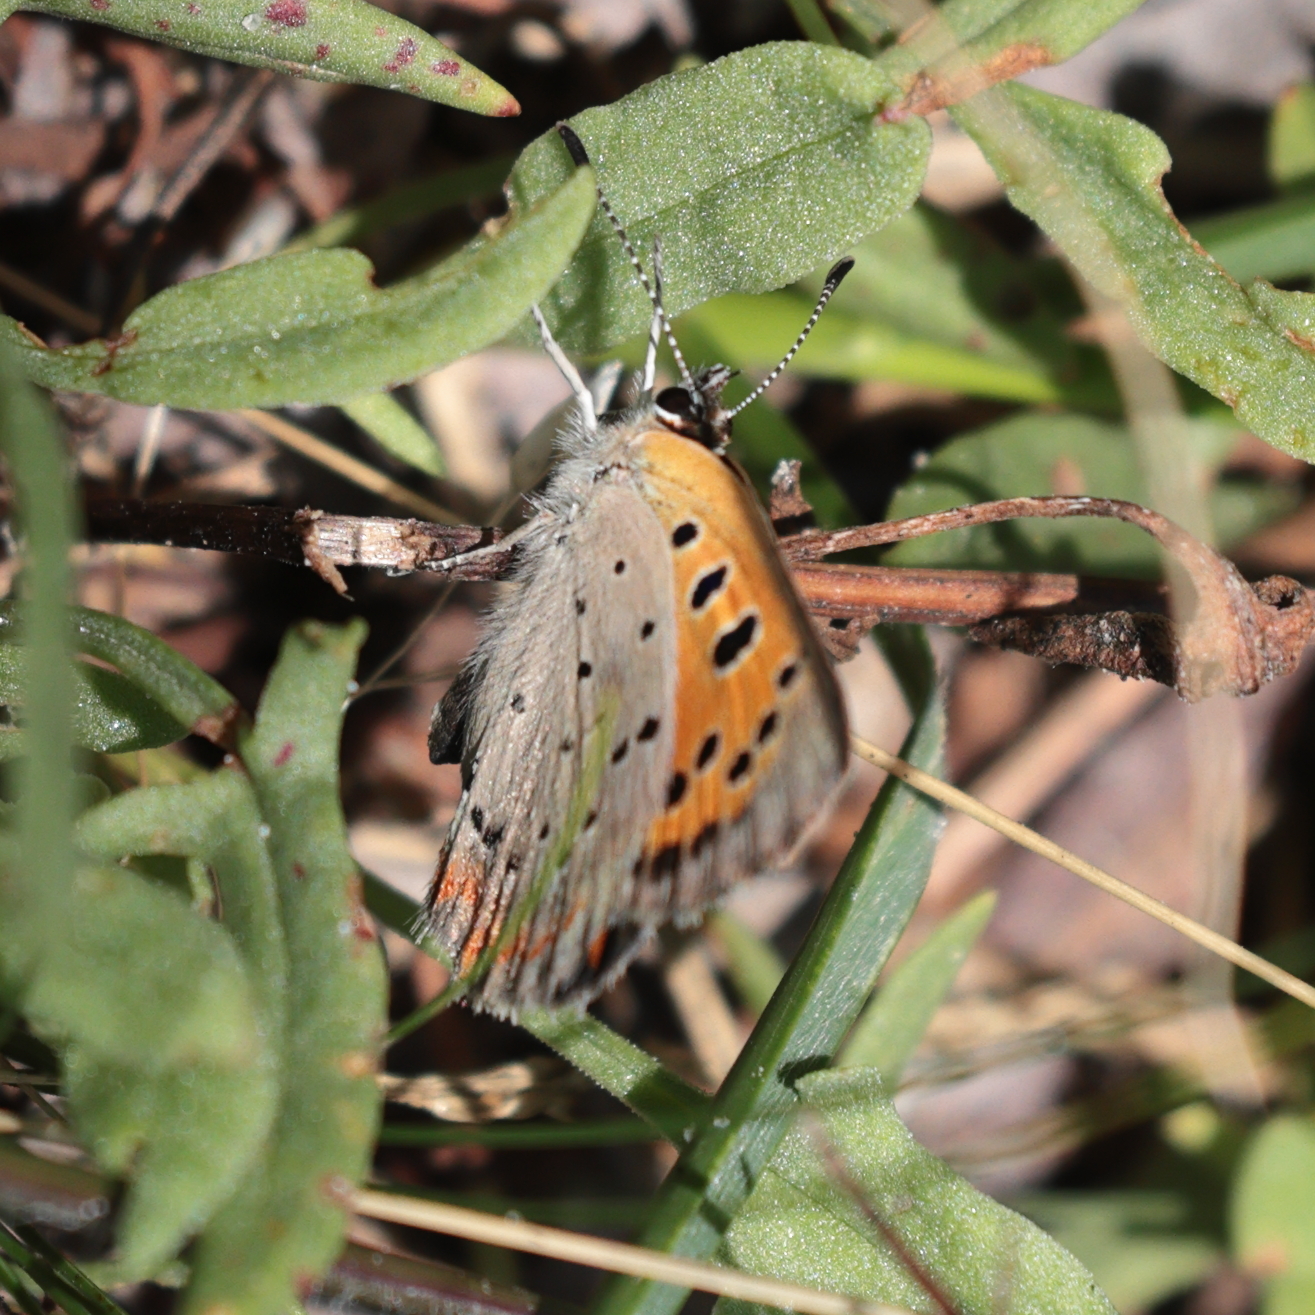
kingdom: Animalia
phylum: Arthropoda
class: Insecta
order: Lepidoptera
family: Lycaenidae
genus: Lycaena
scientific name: Lycaena hypophlaeas
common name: American copper
